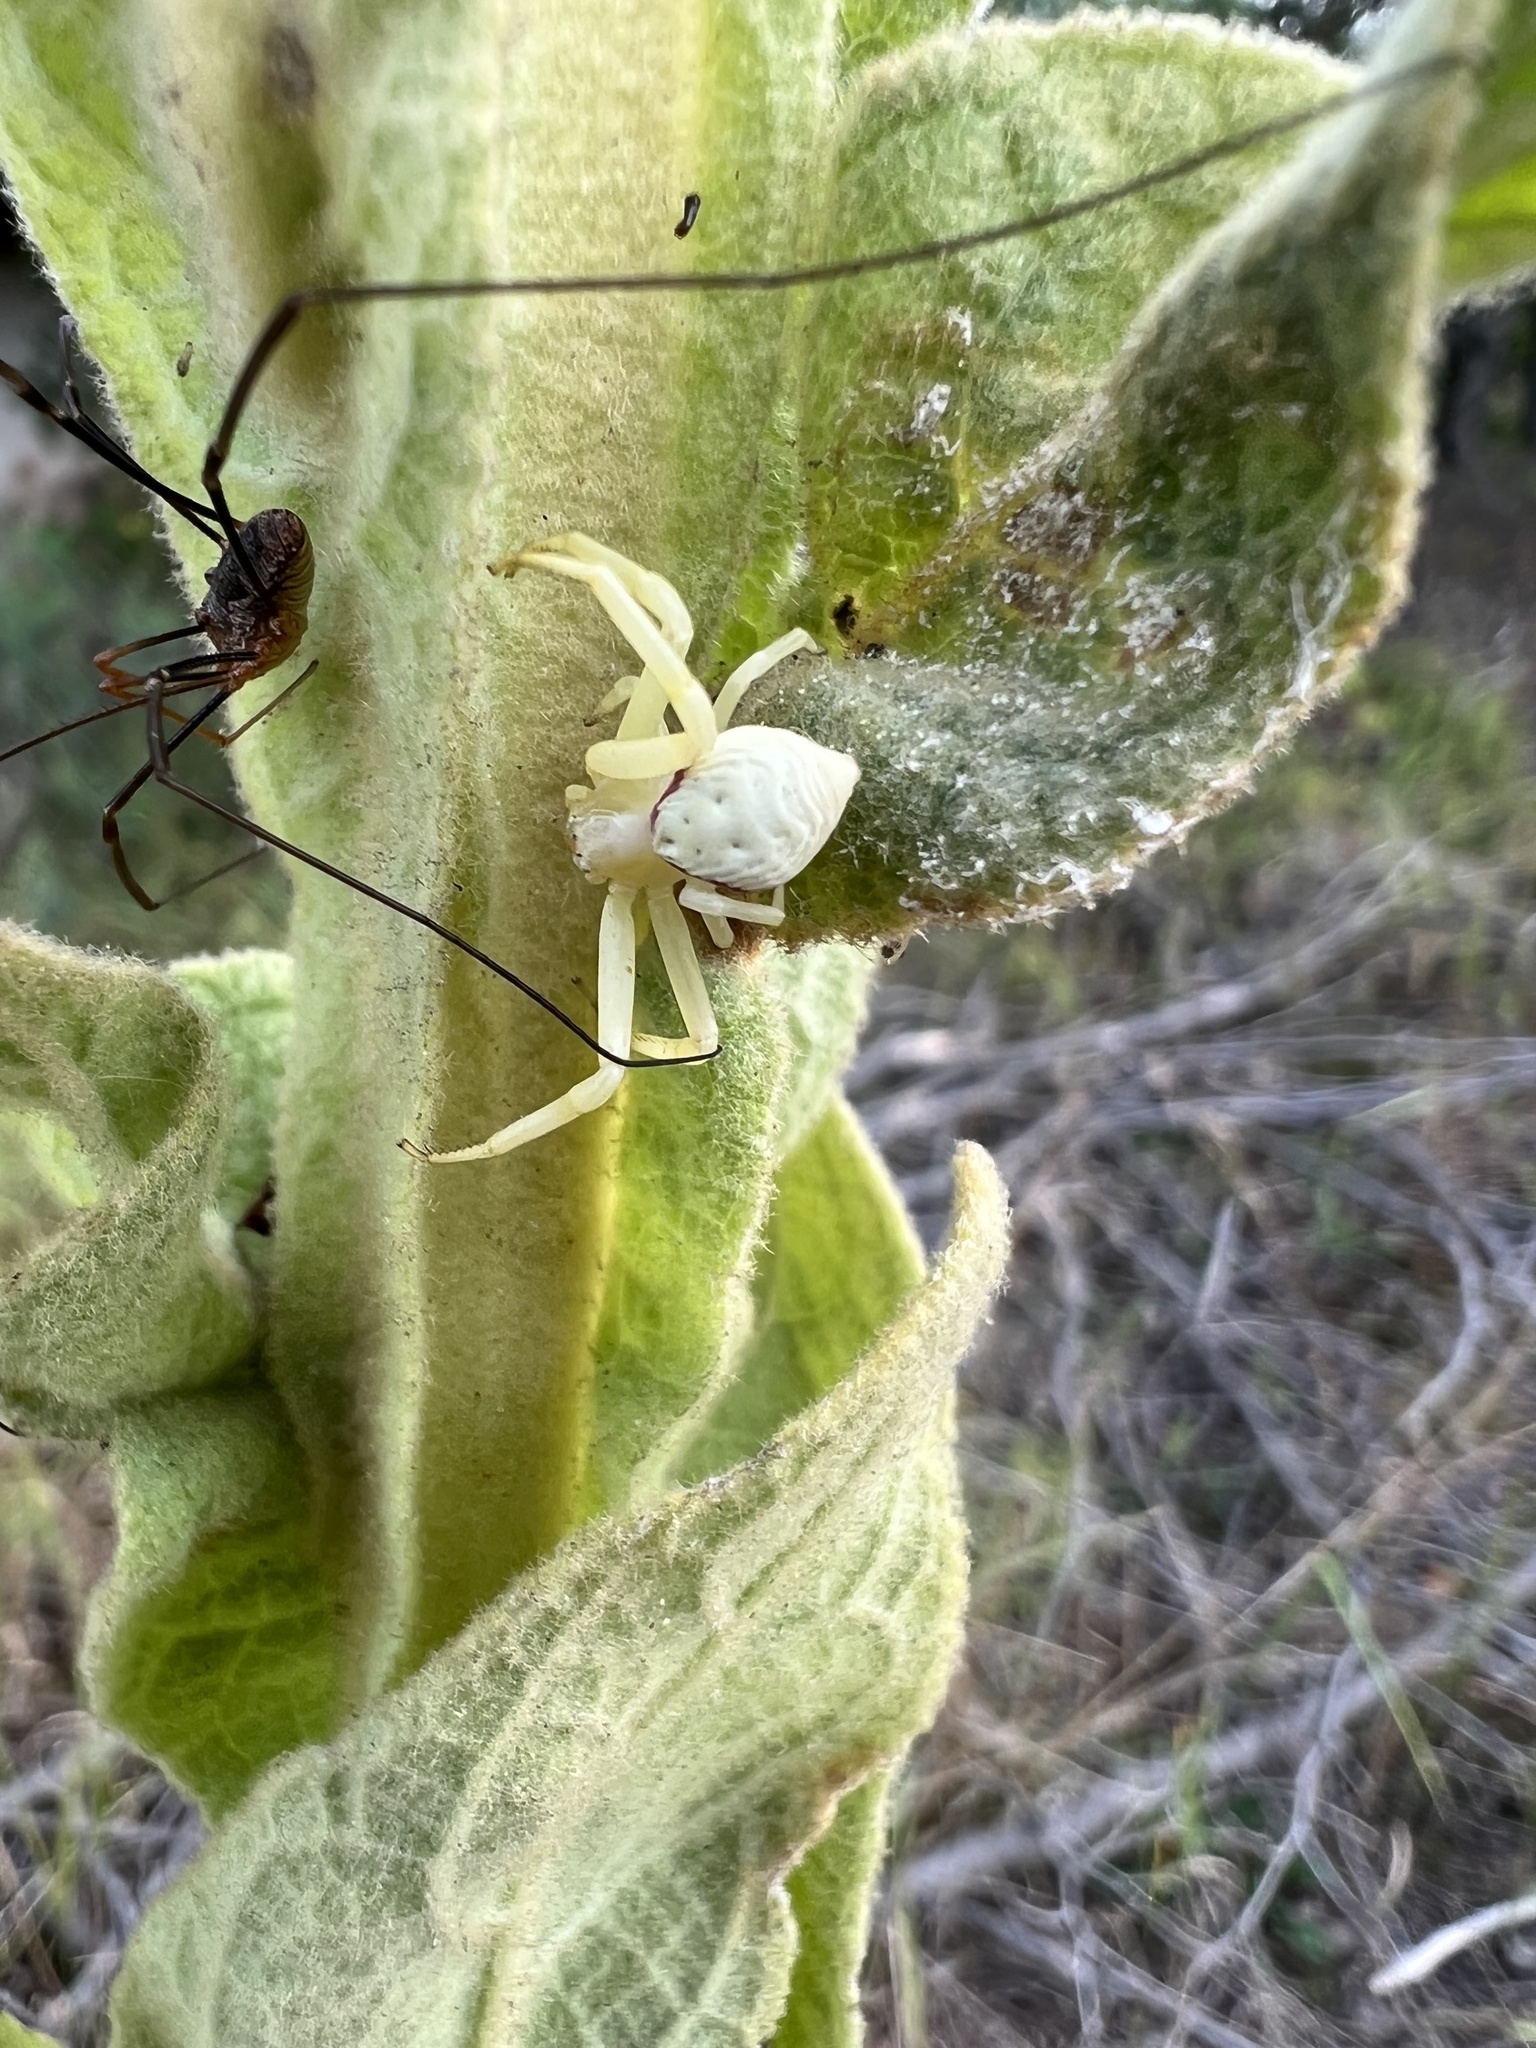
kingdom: Animalia
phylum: Arthropoda
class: Arachnida
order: Araneae
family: Thomisidae
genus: Misumena
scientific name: Misumena vatia
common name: Goldenrod crab spider
